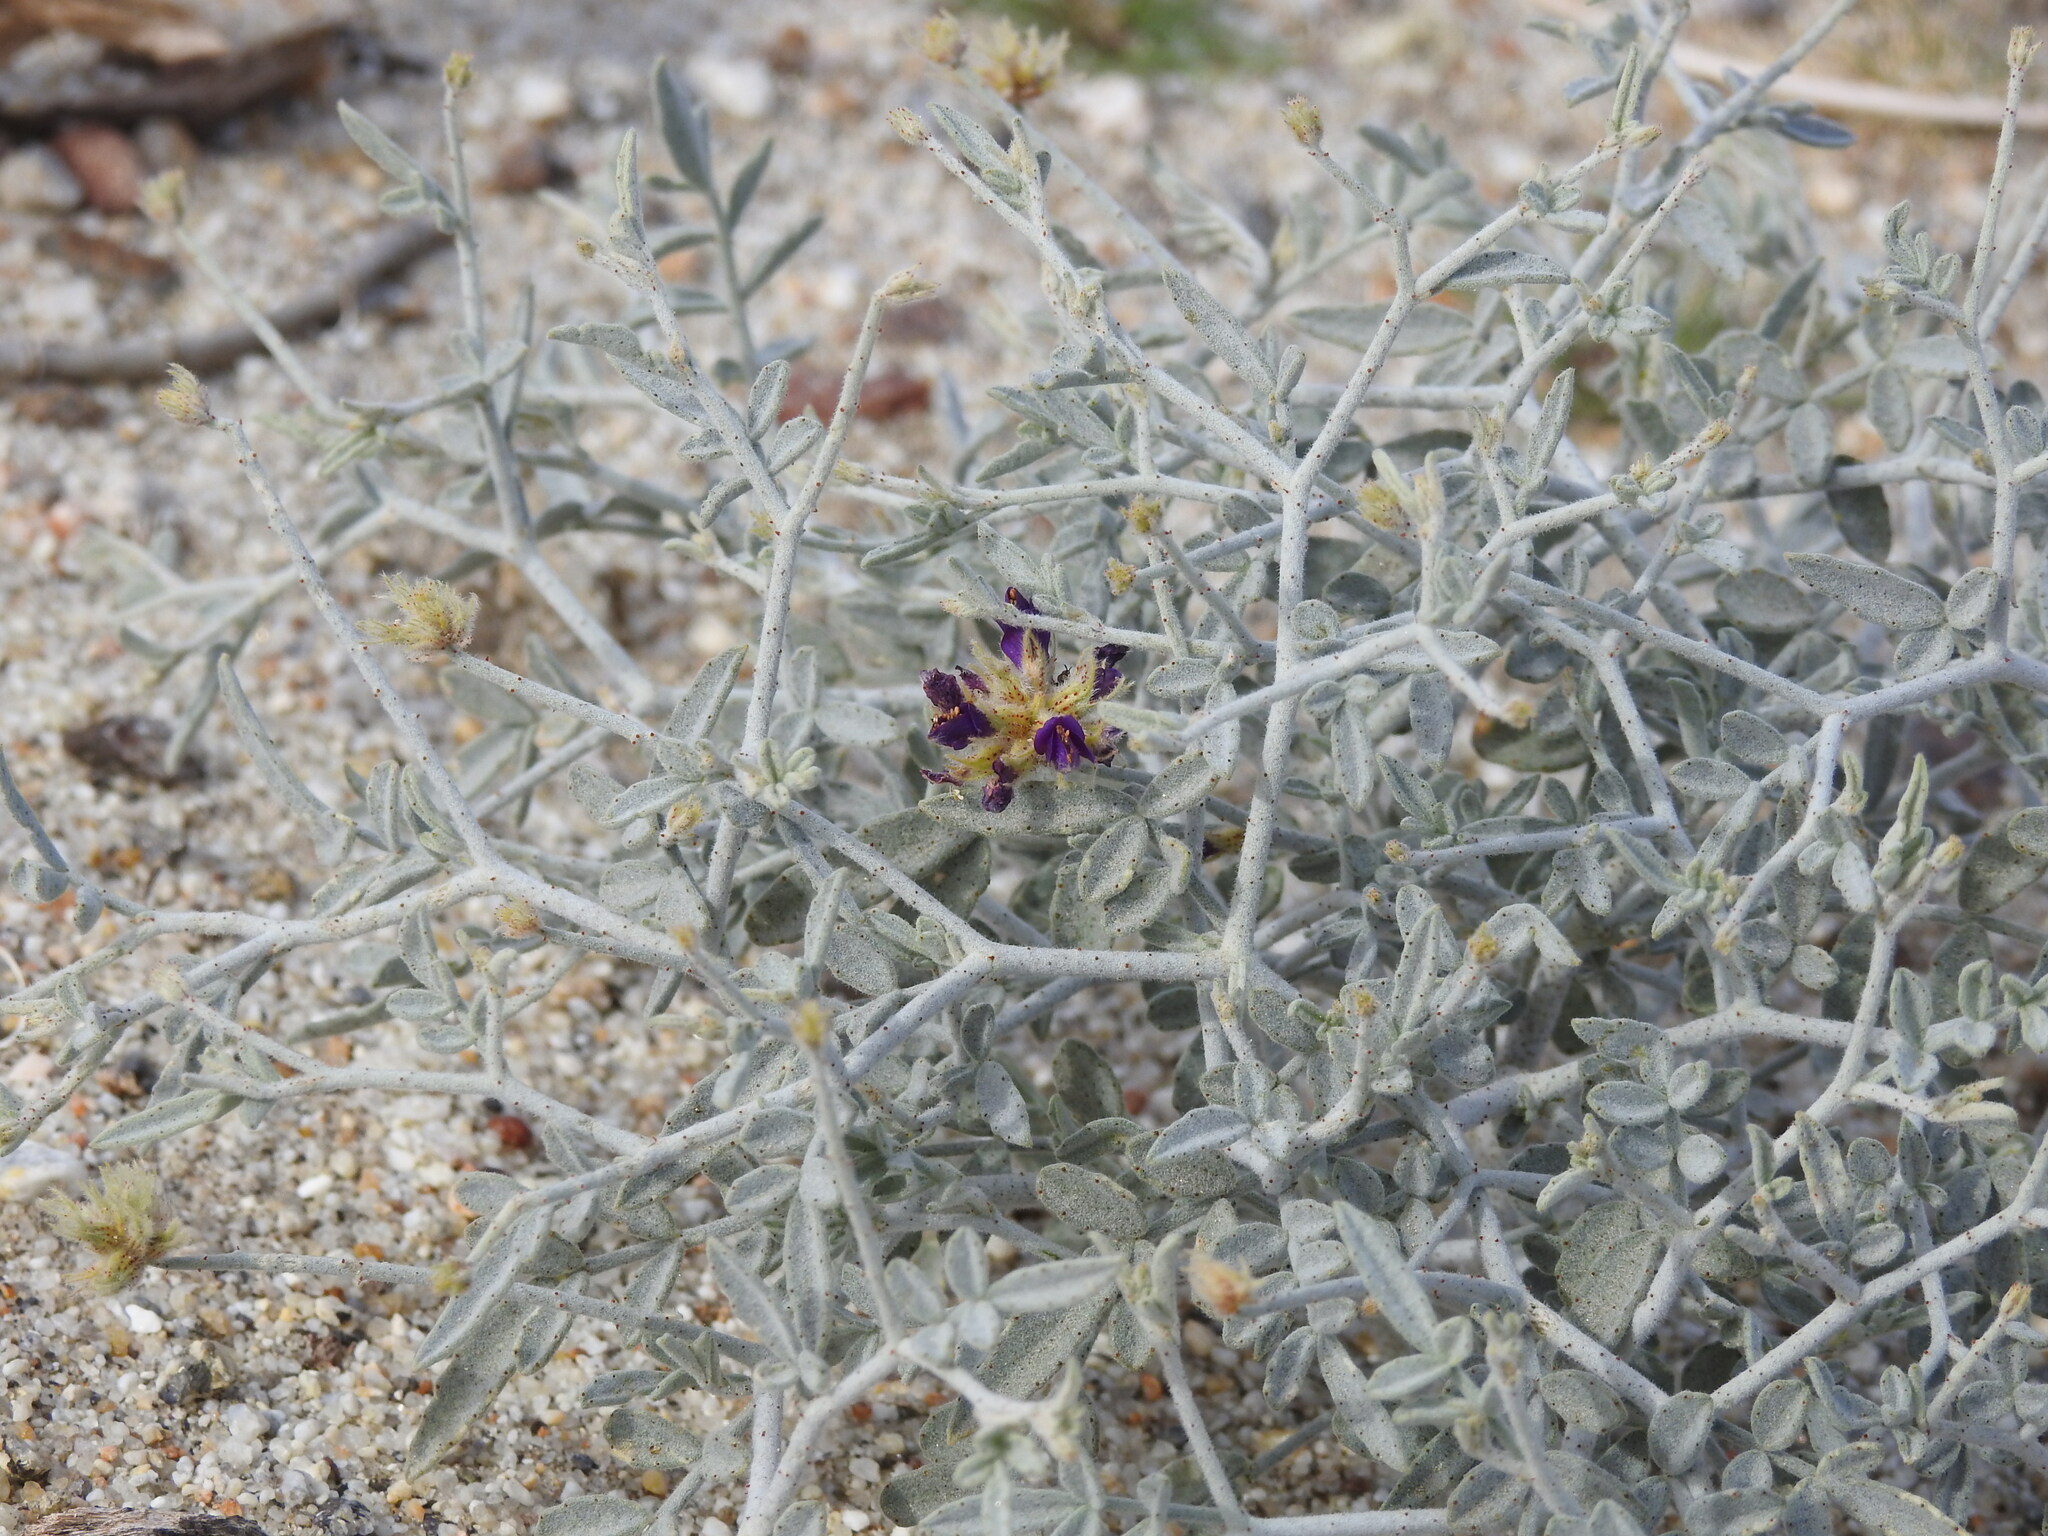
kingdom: Plantae
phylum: Tracheophyta
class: Magnoliopsida
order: Fabales
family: Fabaceae
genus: Psorothamnus
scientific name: Psorothamnus emoryi
